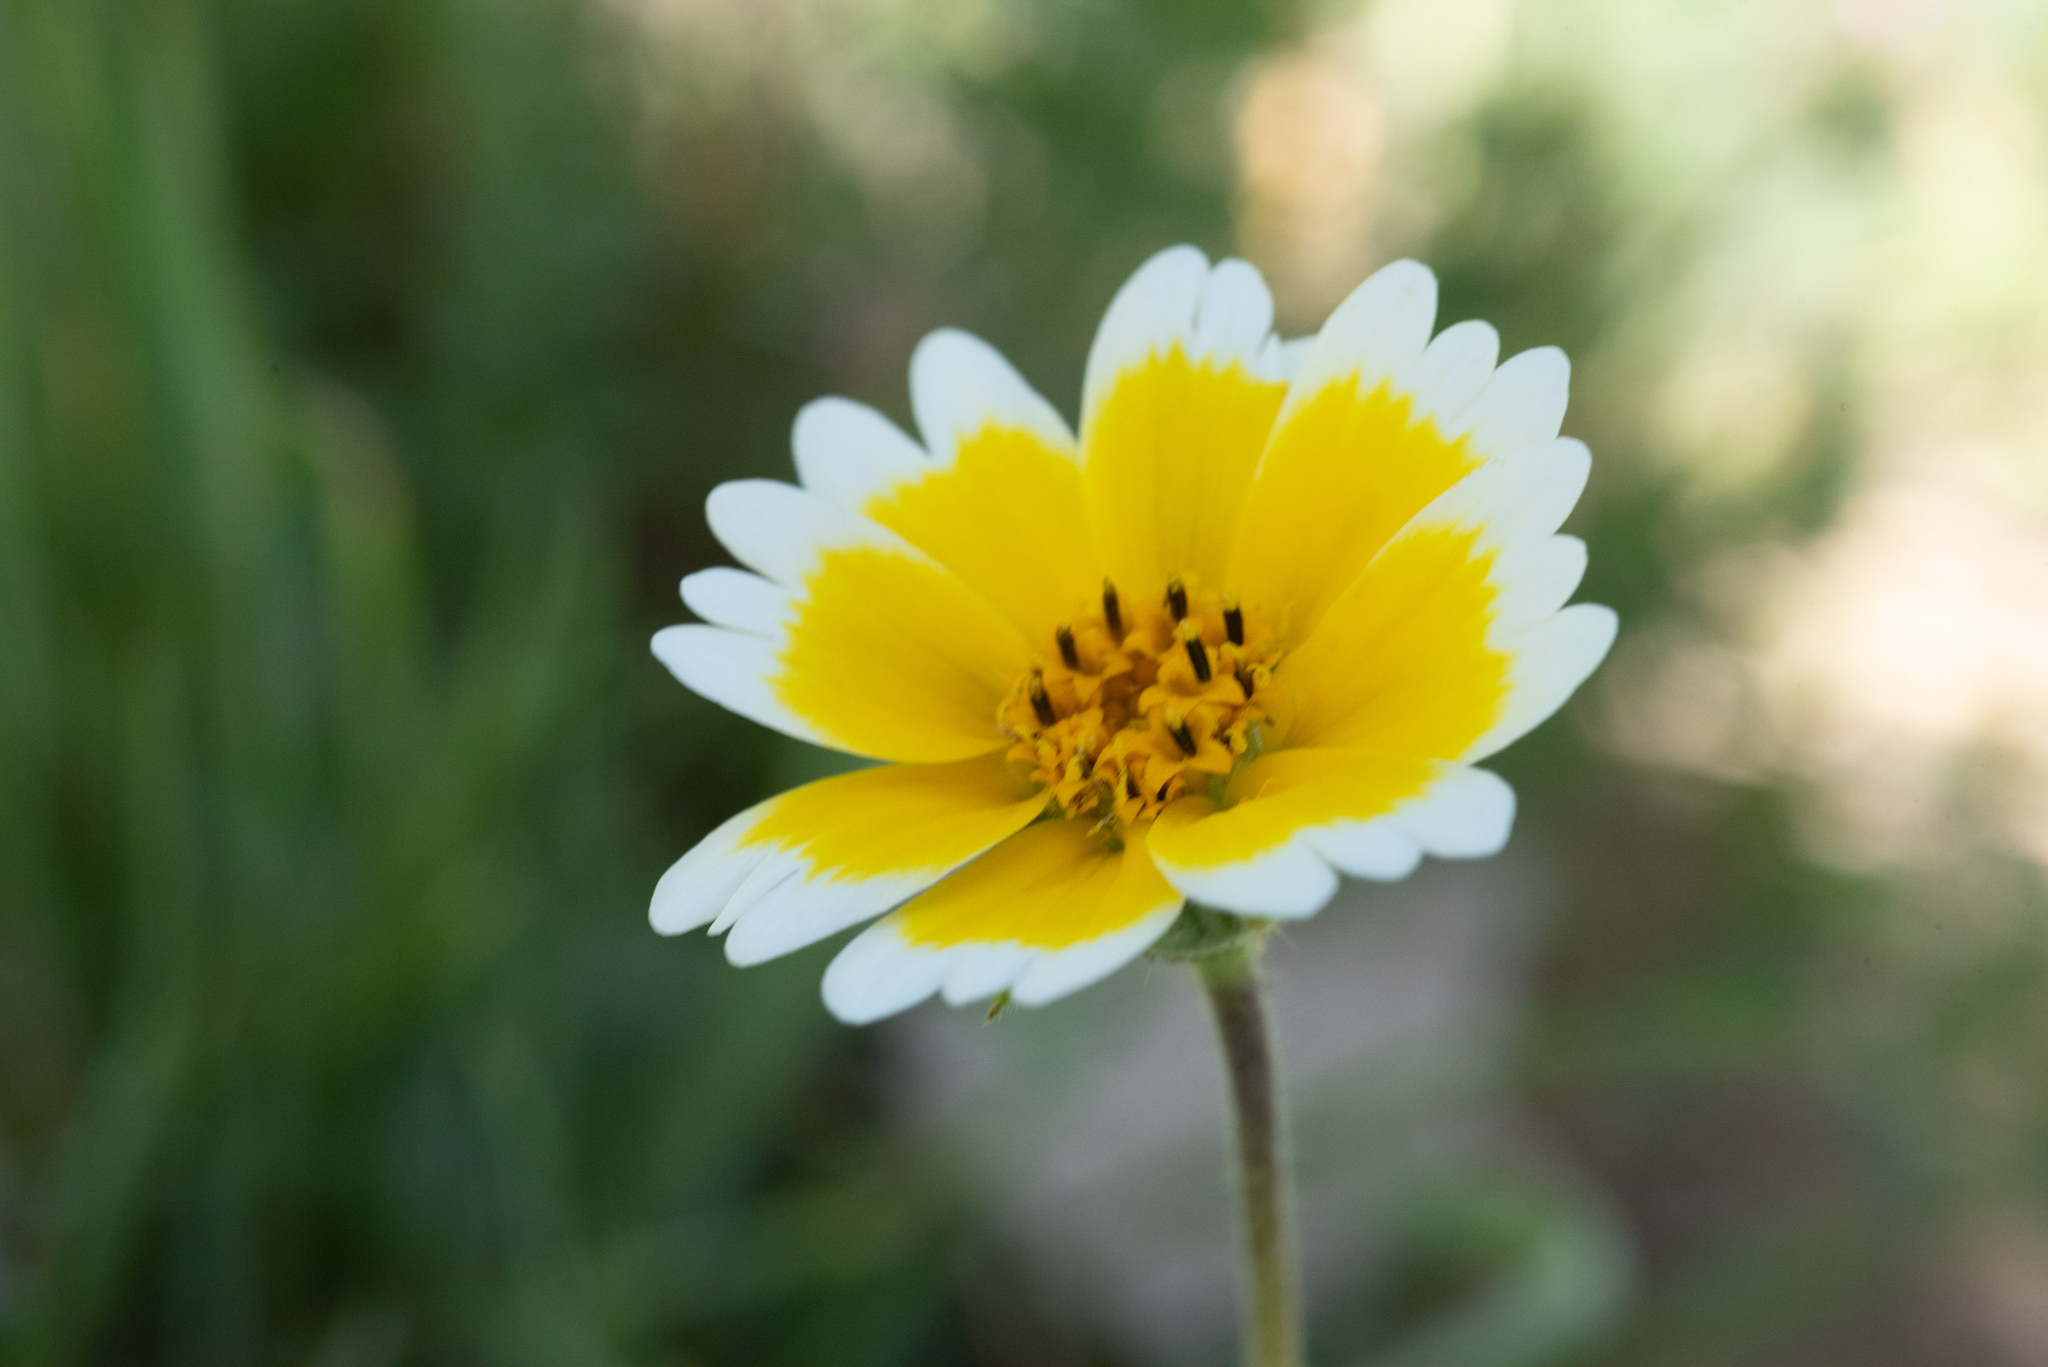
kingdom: Plantae
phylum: Tracheophyta
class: Magnoliopsida
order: Asterales
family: Asteraceae
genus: Layia
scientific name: Layia platyglossa
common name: Tidy-tips
